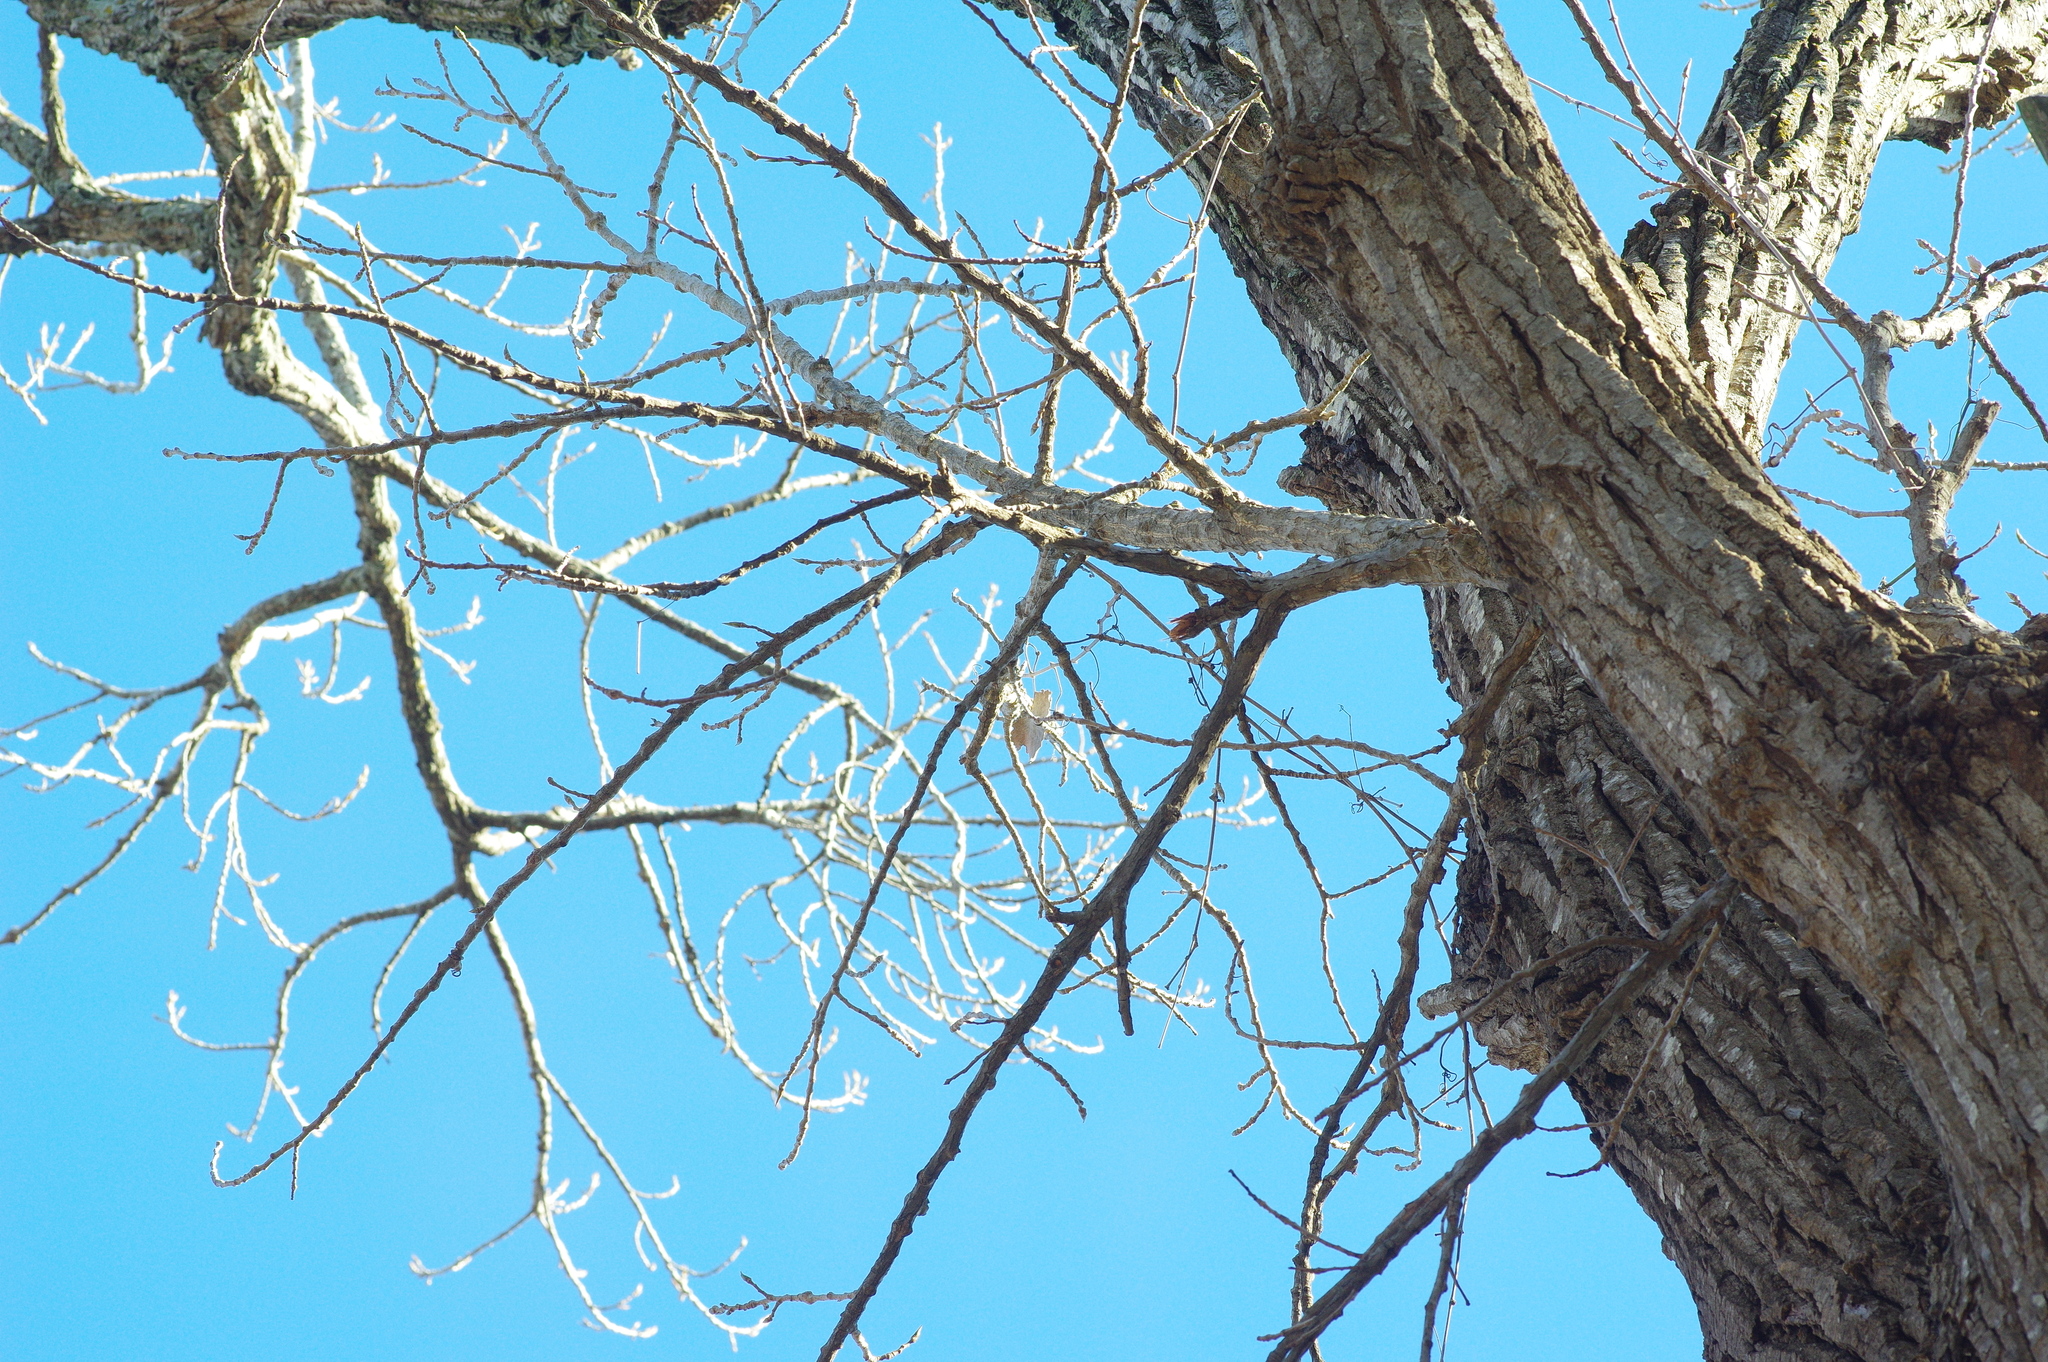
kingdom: Plantae
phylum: Tracheophyta
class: Magnoliopsida
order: Malpighiales
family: Salicaceae
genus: Populus
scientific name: Populus deltoides
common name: Eastern cottonwood
